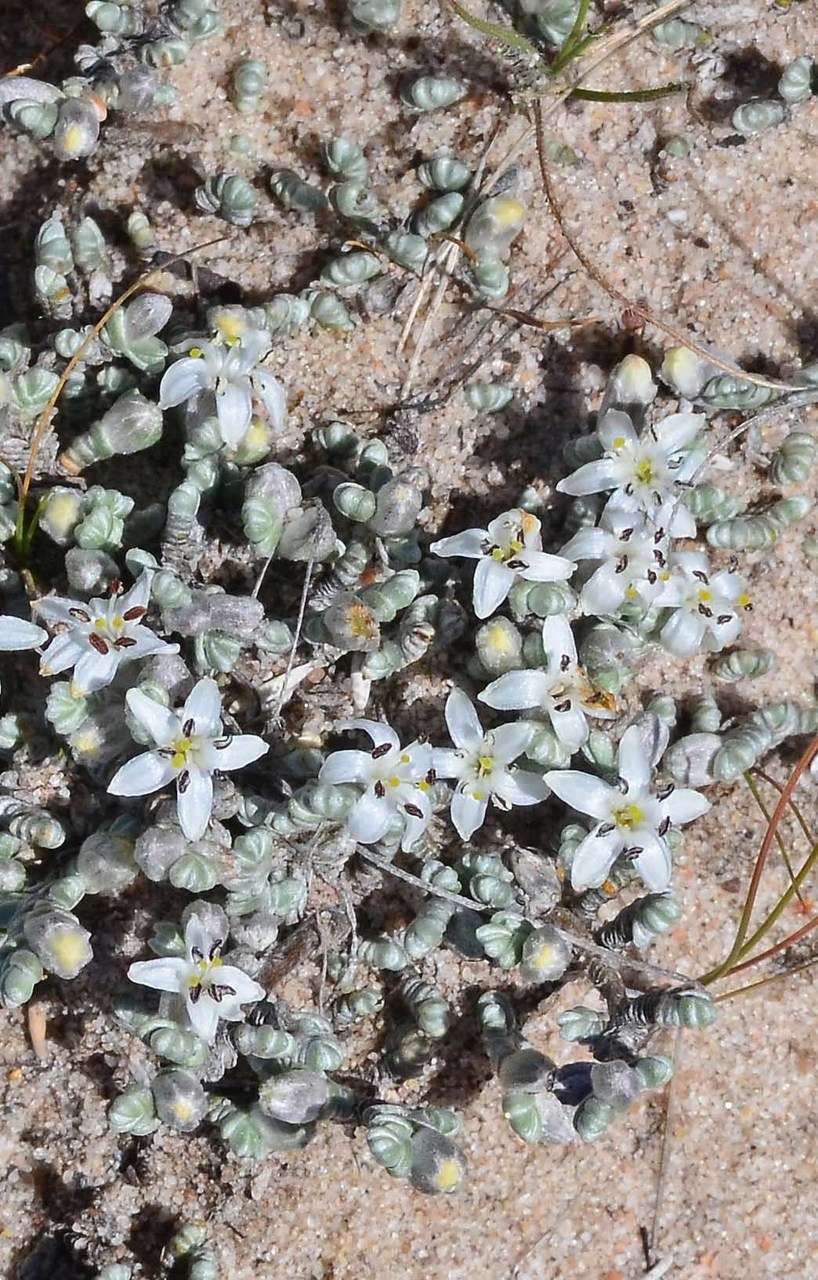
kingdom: Plantae
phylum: Tracheophyta
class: Magnoliopsida
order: Solanales
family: Convolvulaceae
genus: Wilsonia
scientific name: Wilsonia humilis
